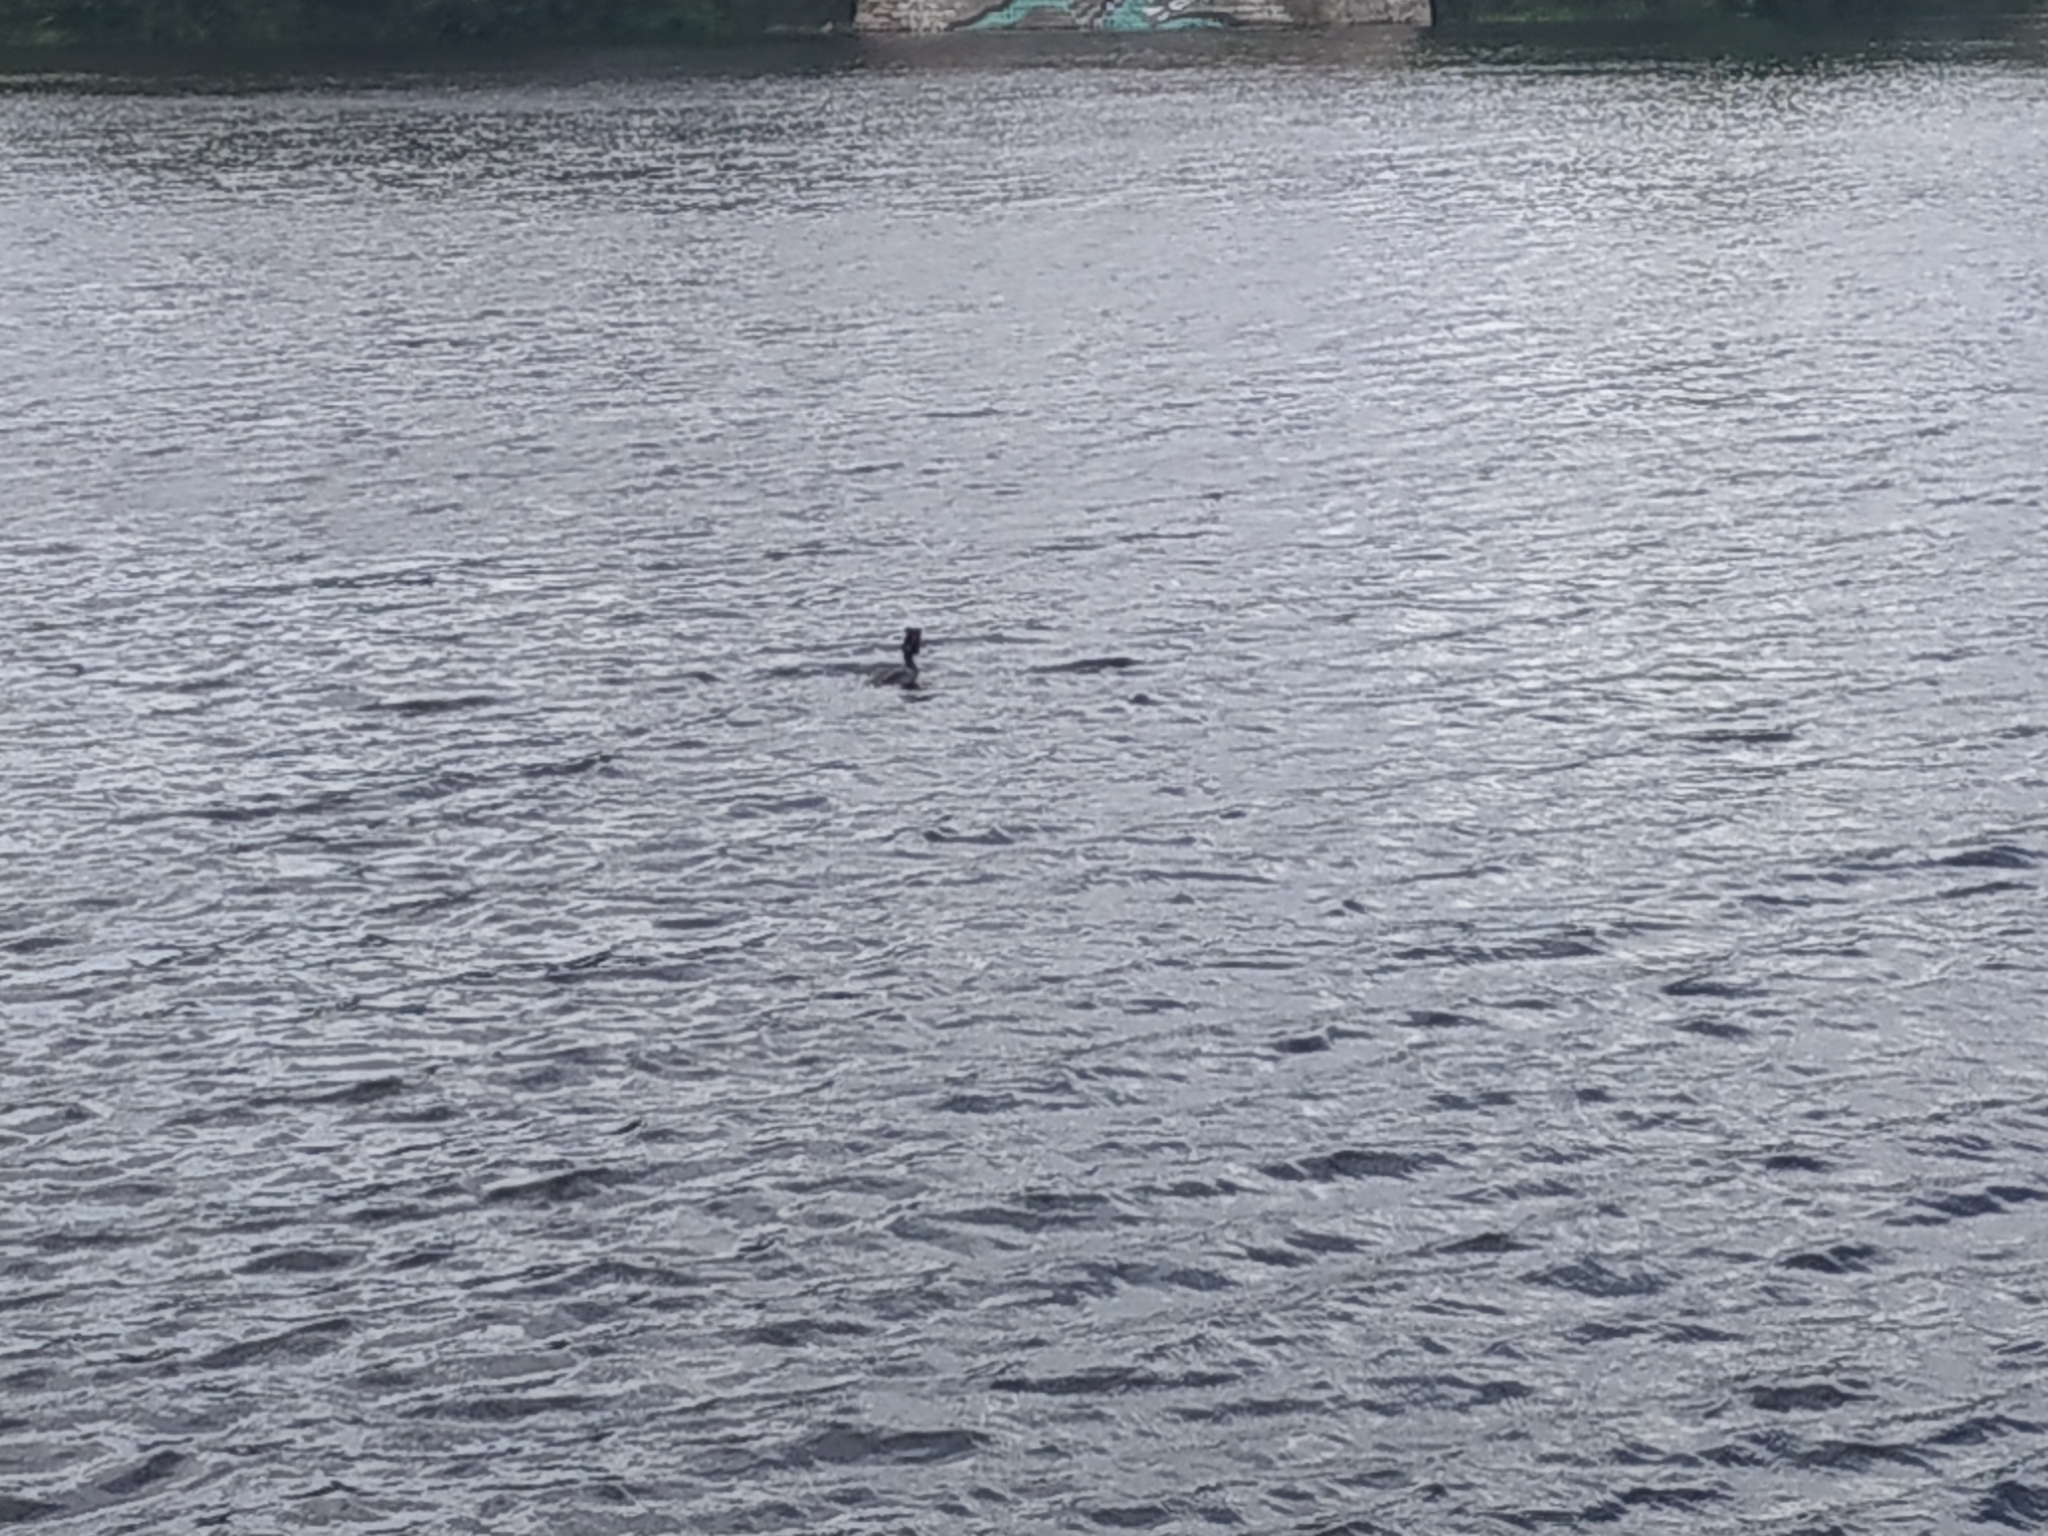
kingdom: Animalia
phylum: Chordata
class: Aves
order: Podicipediformes
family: Podicipedidae
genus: Podiceps
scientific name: Podiceps cristatus
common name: Great crested grebe
